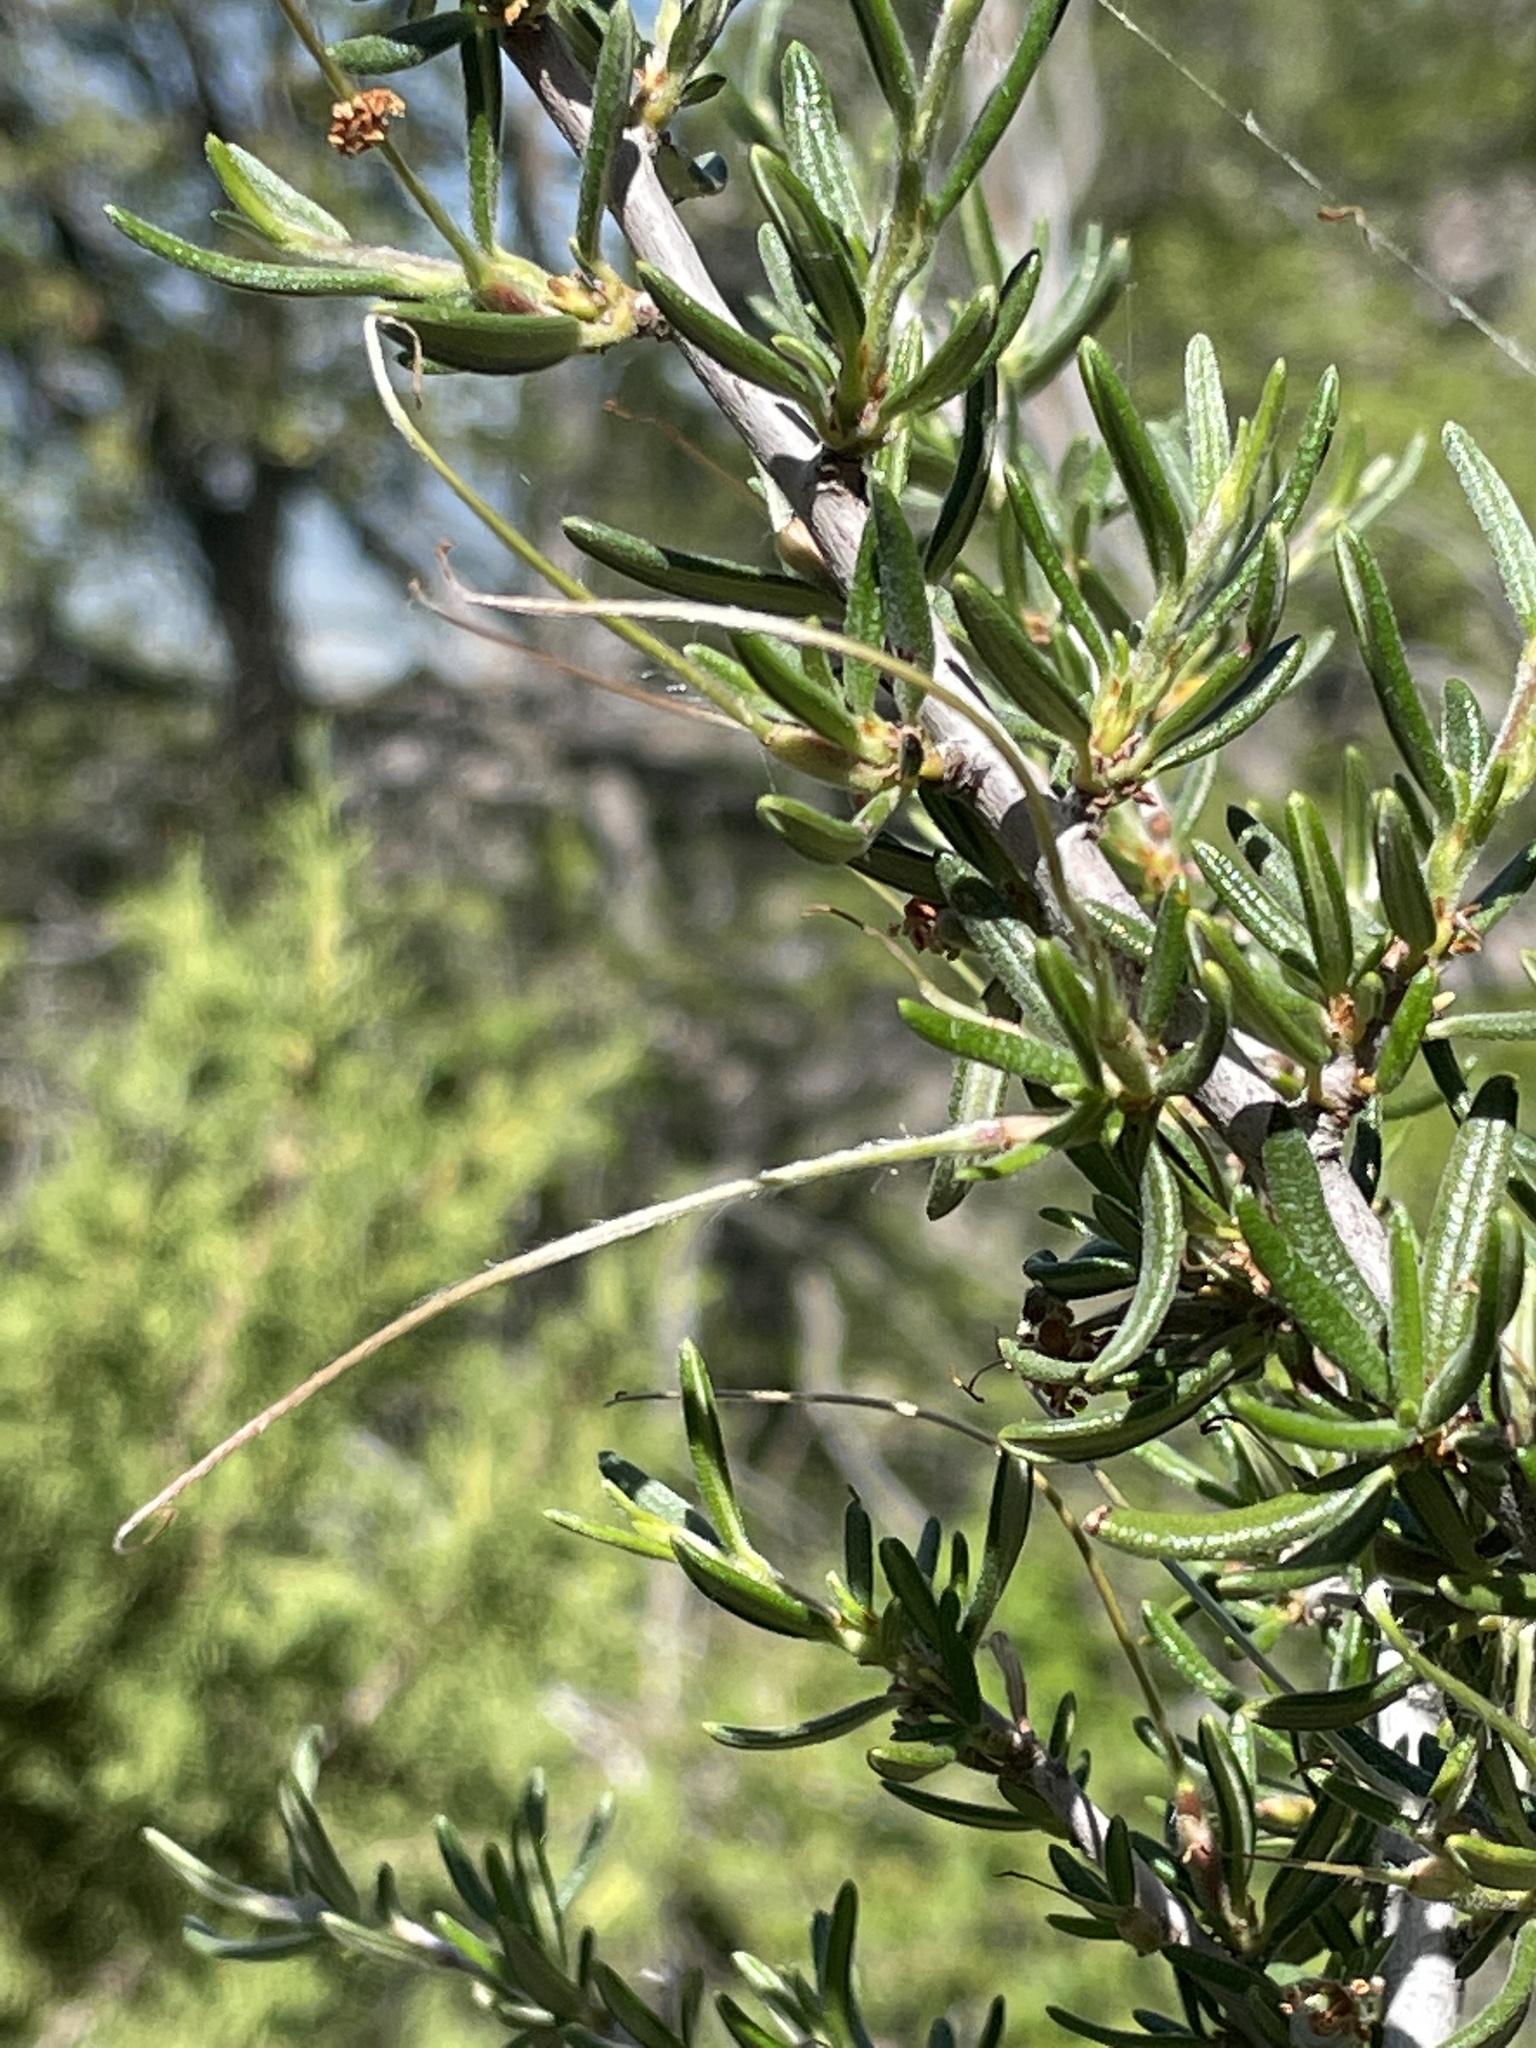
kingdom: Plantae
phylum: Tracheophyta
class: Magnoliopsida
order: Rosales
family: Rosaceae
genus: Cercocarpus
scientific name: Cercocarpus intricatus
